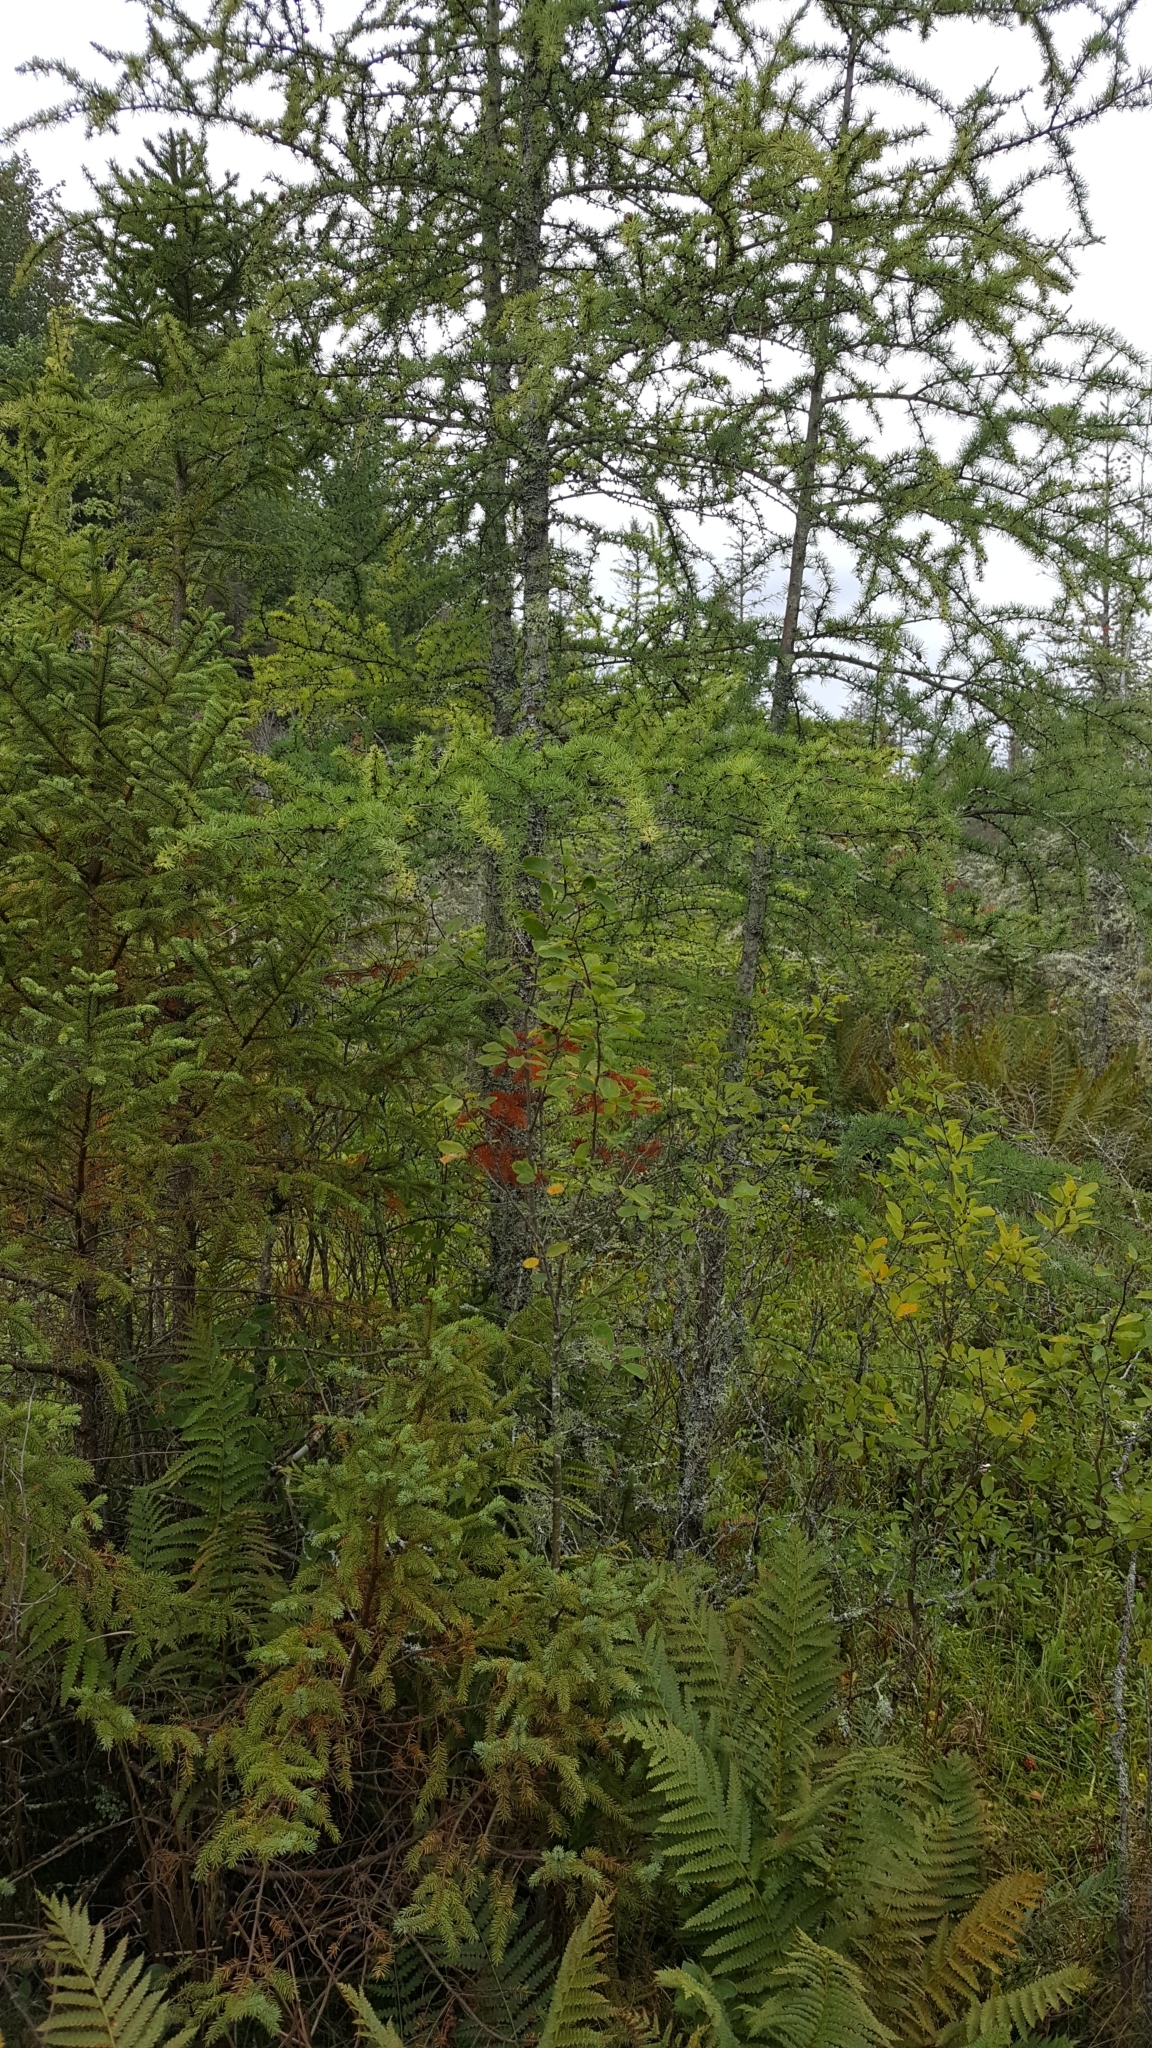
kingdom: Plantae
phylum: Tracheophyta
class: Pinopsida
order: Pinales
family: Pinaceae
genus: Larix
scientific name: Larix laricina
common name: American larch
